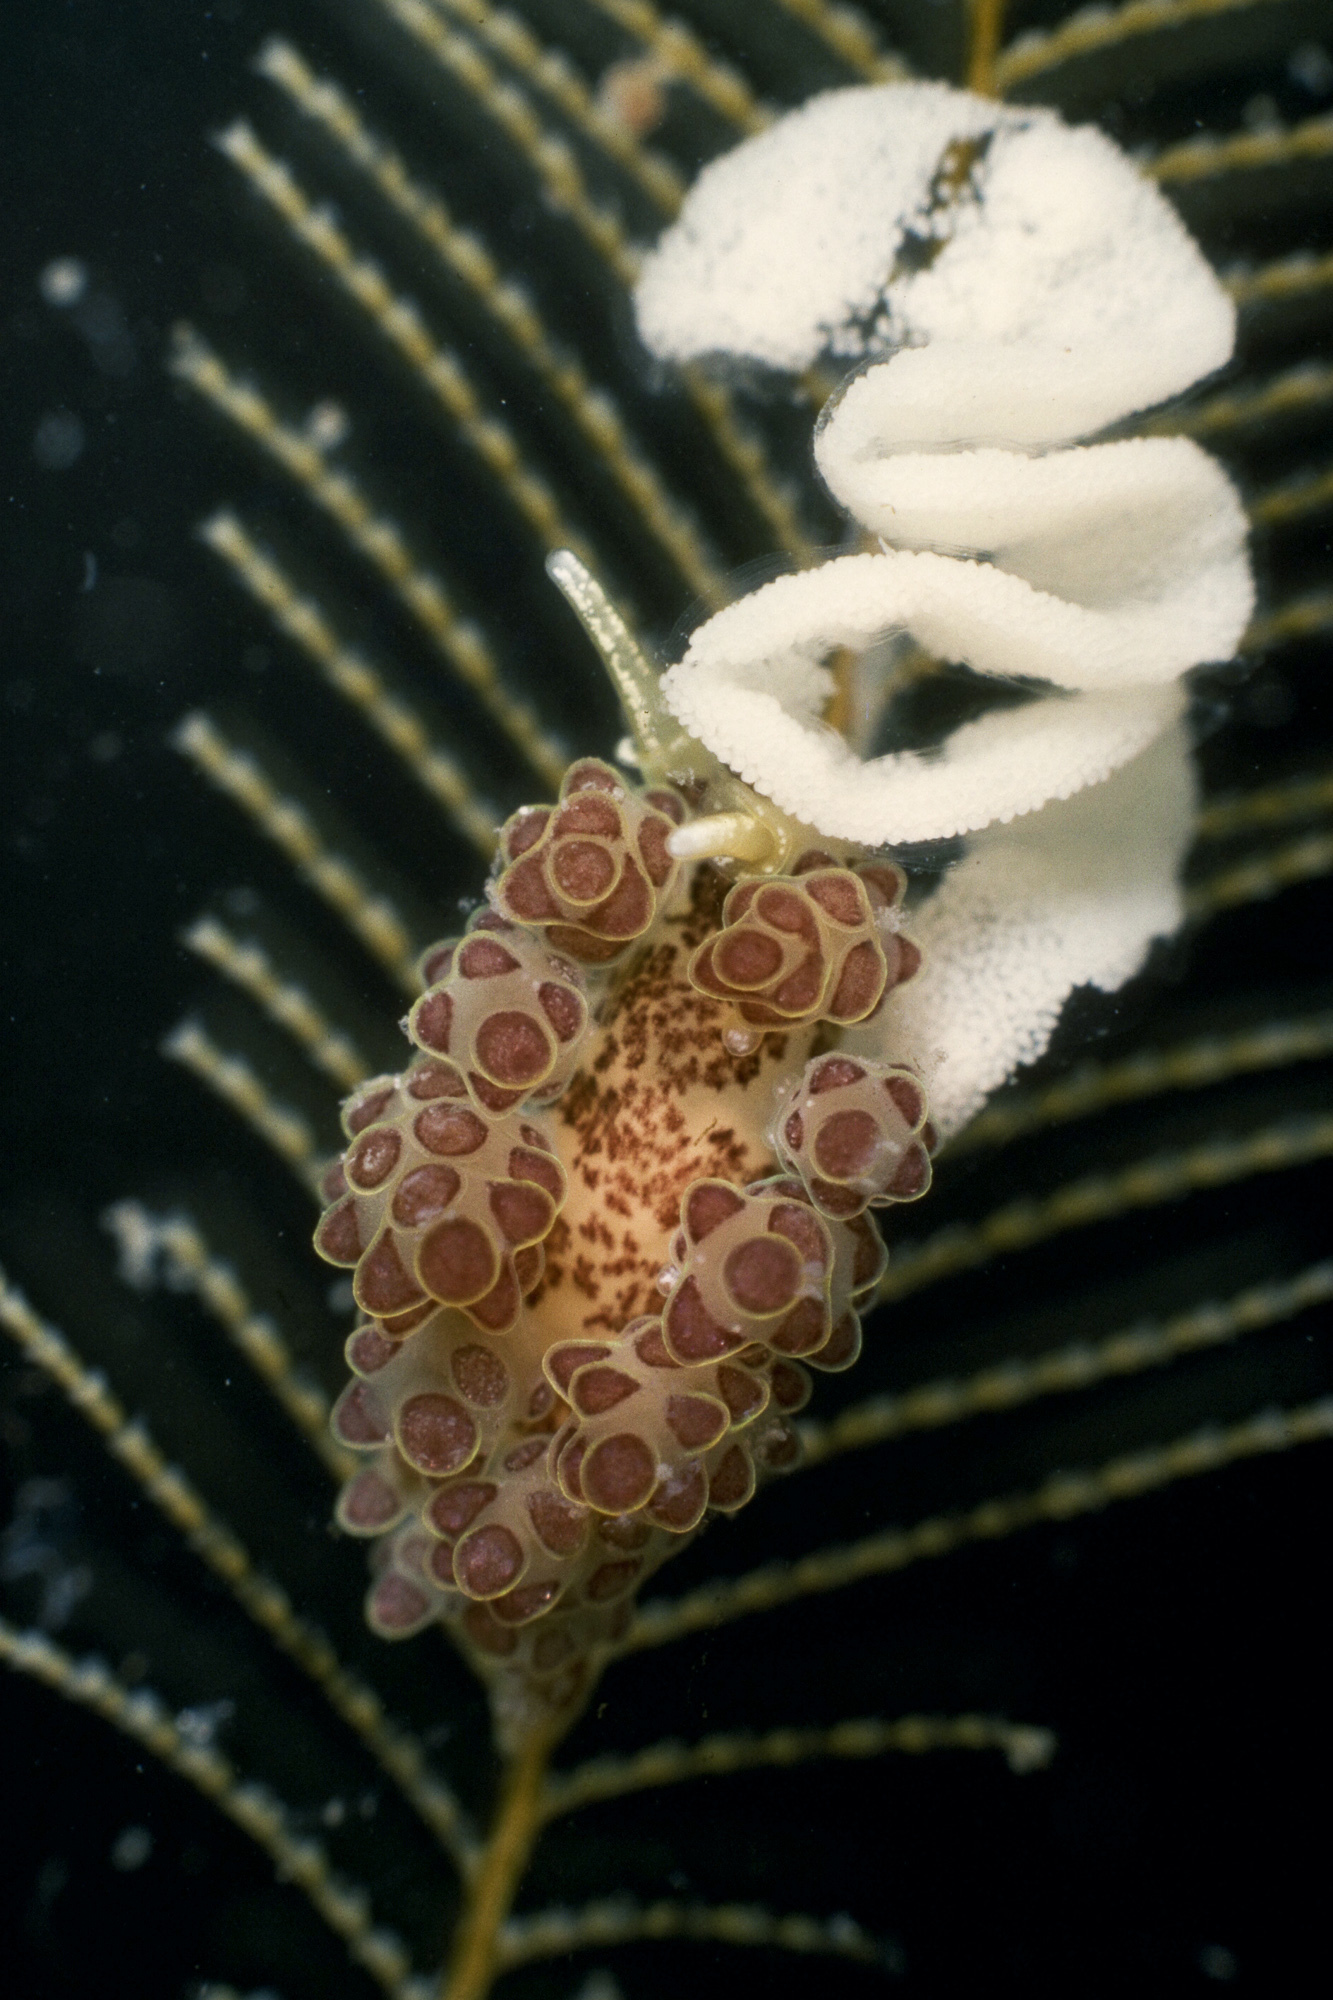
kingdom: Animalia
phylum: Mollusca
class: Gastropoda
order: Nudibranchia
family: Dotidae
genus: Doto
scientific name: Doto floridicola
